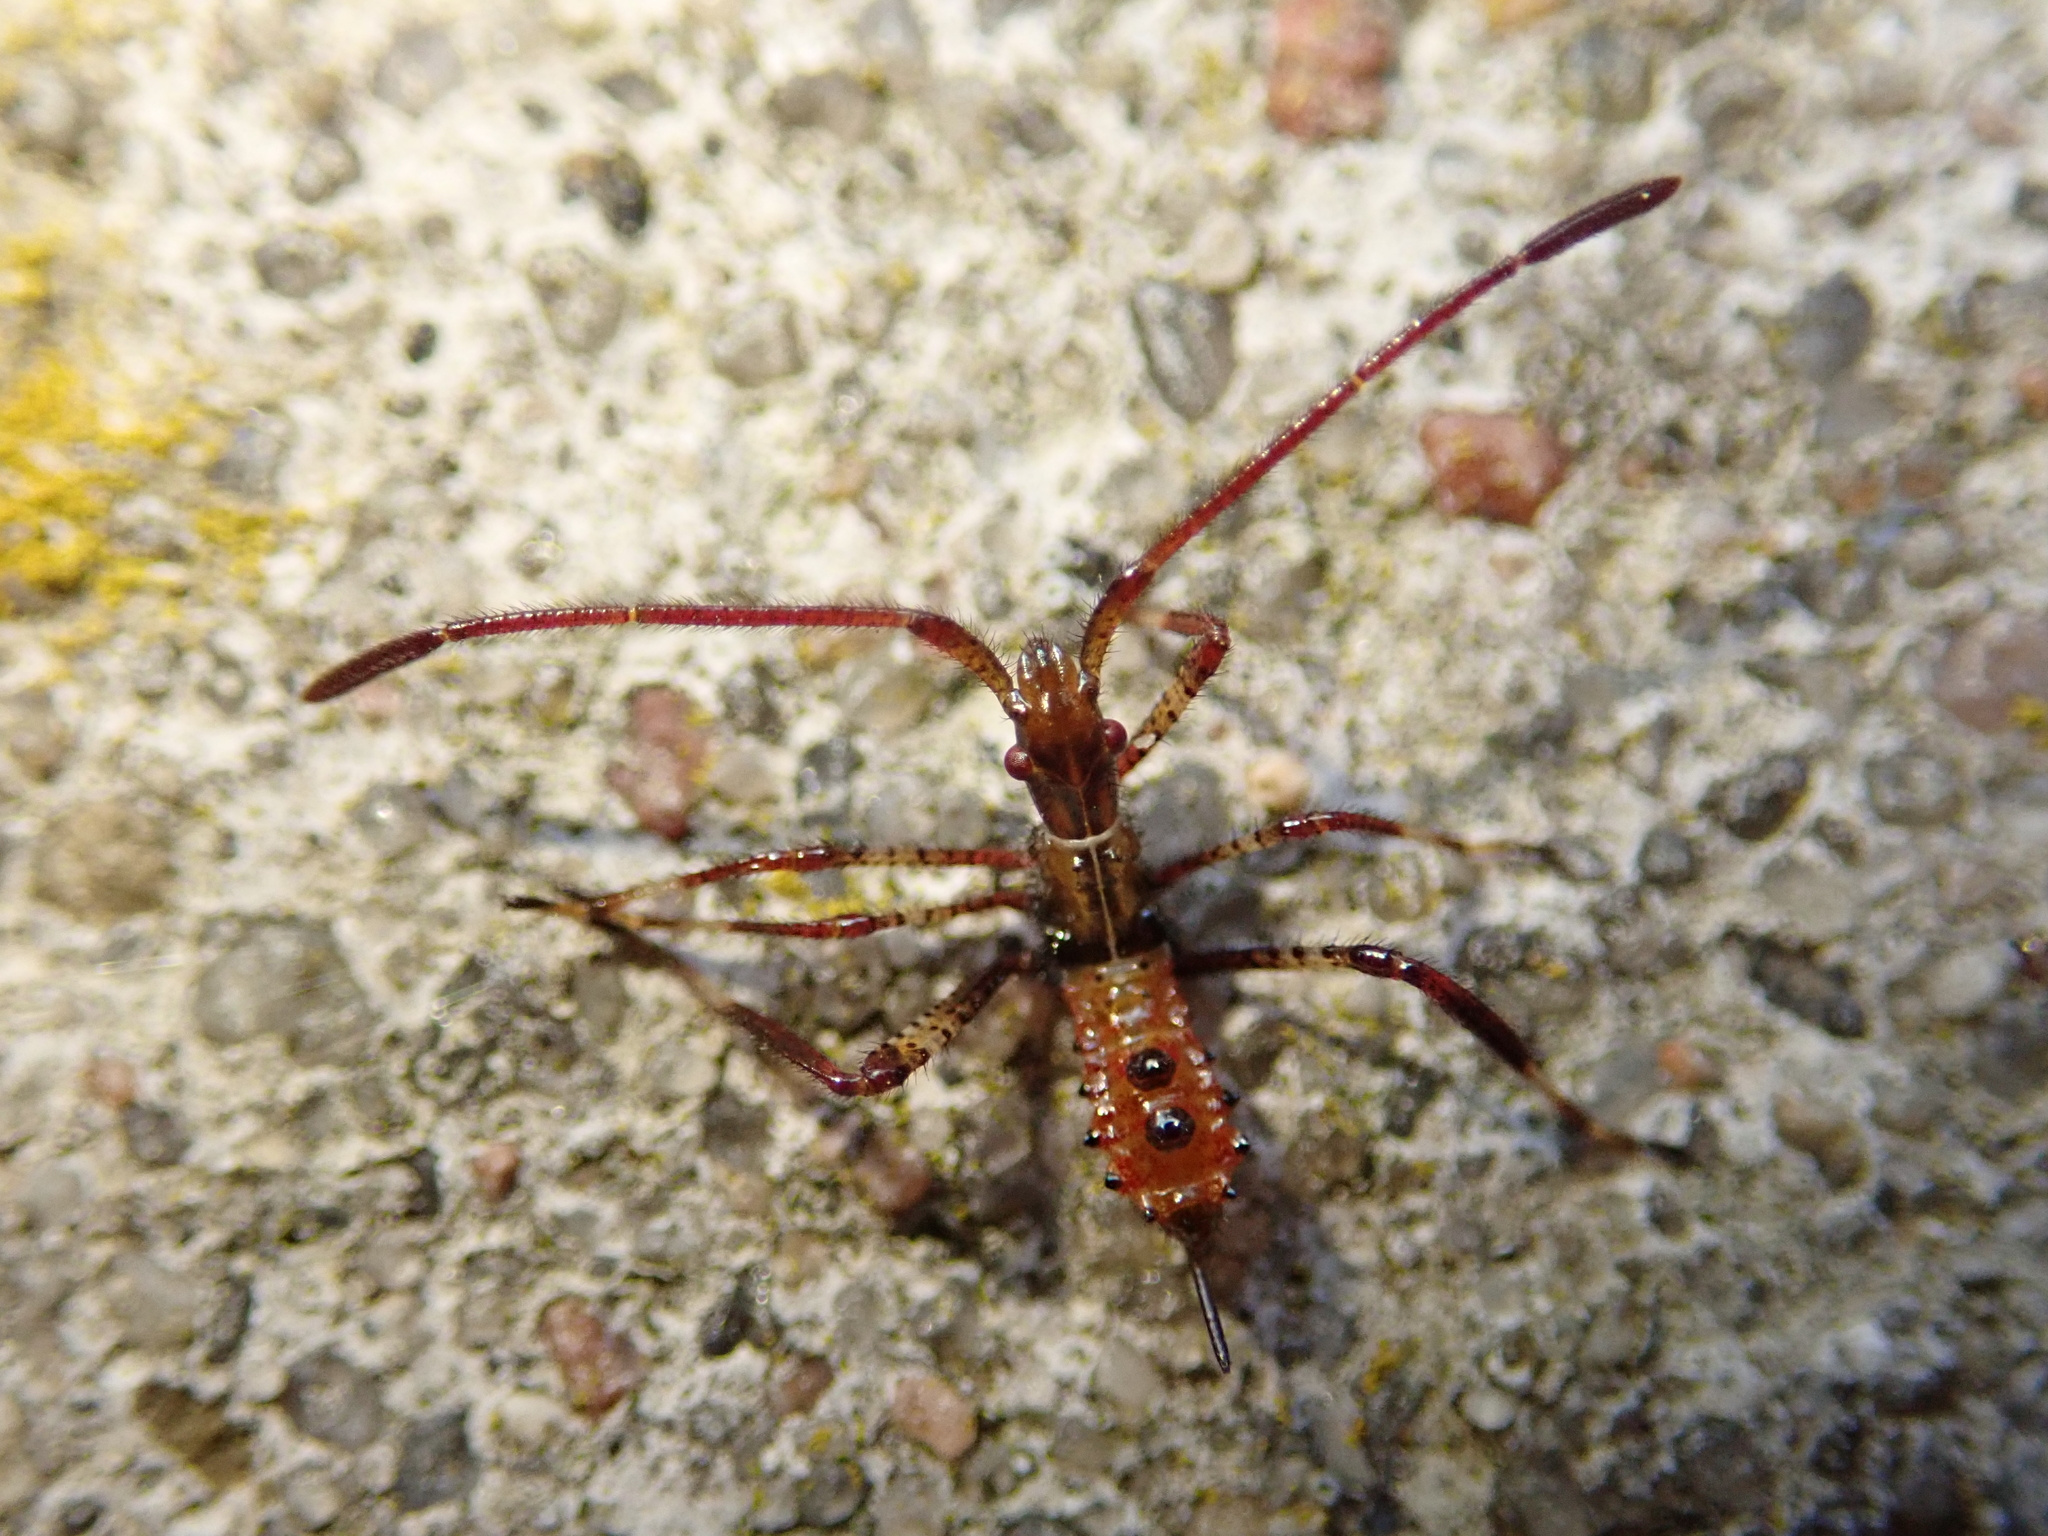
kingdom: Animalia
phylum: Arthropoda
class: Insecta
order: Hemiptera
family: Coreidae
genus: Leptoglossus
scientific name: Leptoglossus occidentalis
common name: Western conifer-seed bug
